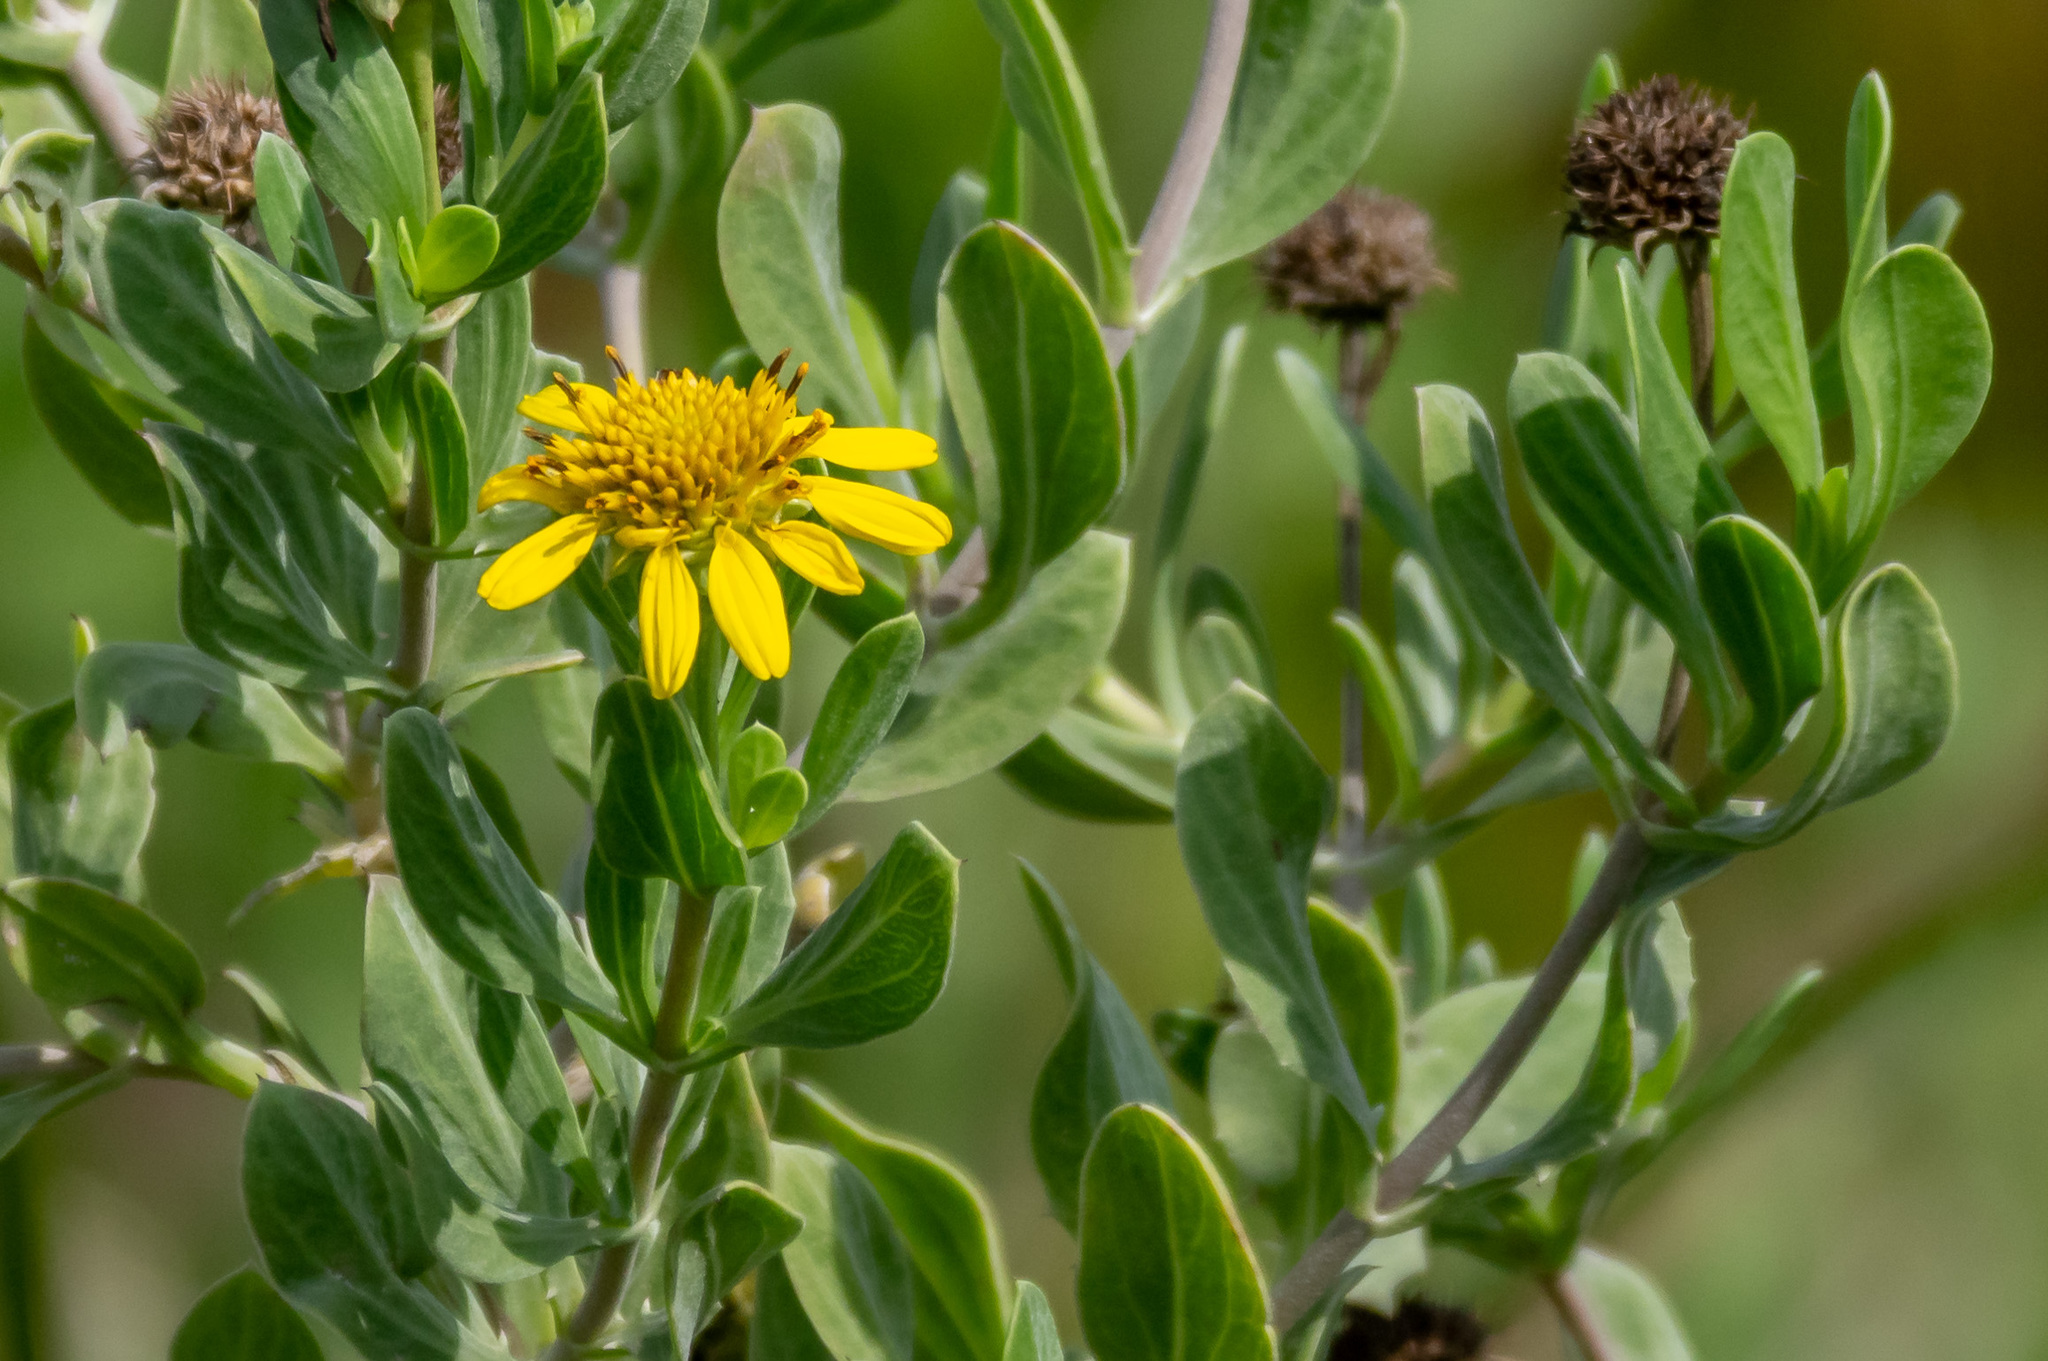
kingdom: Plantae
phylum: Tracheophyta
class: Magnoliopsida
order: Asterales
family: Asteraceae
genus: Borrichia
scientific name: Borrichia frutescens
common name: Sea oxeye
